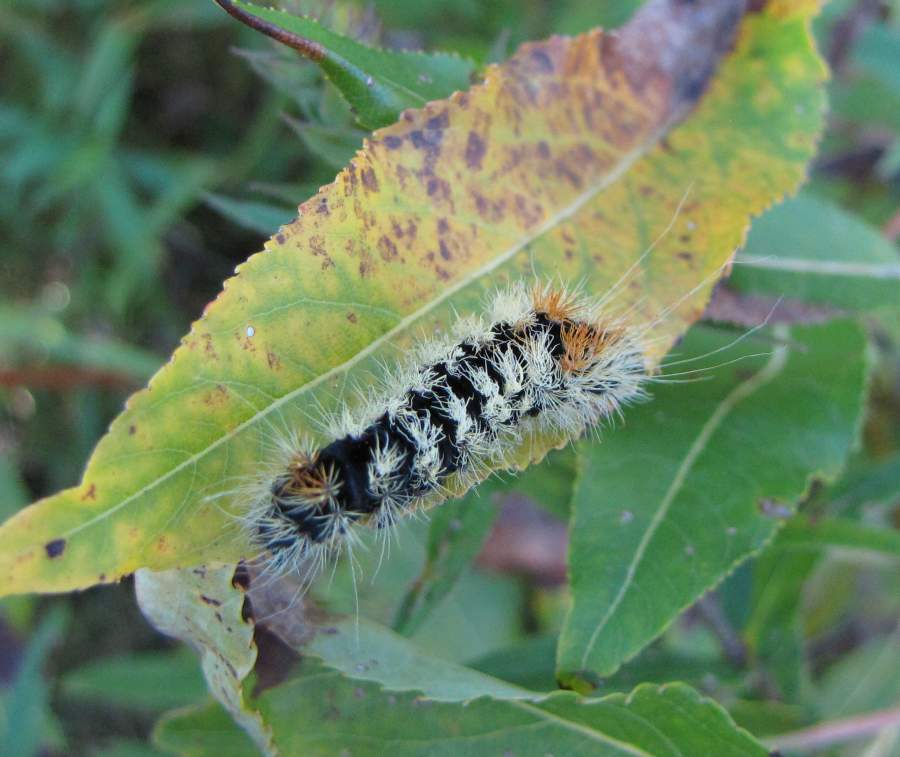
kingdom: Animalia
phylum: Arthropoda
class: Insecta
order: Lepidoptera
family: Noctuidae
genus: Acronicta
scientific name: Acronicta impressa
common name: Impressed dagger
